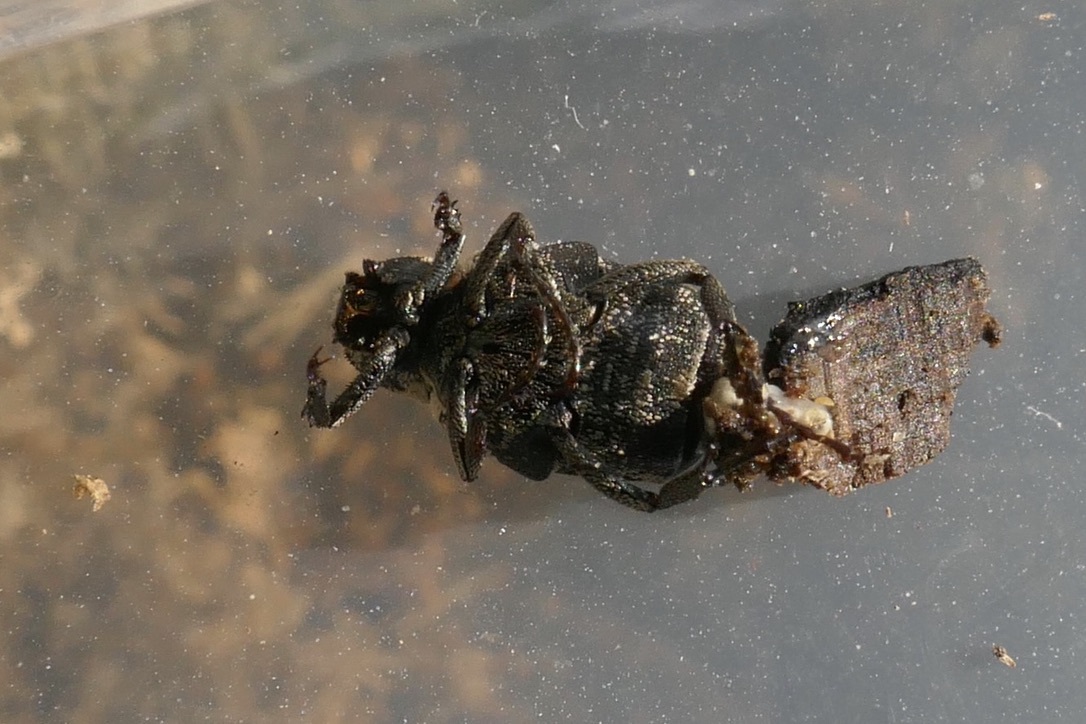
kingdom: Animalia
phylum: Arthropoda
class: Insecta
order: Coleoptera
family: Scarabaeidae
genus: Valgus
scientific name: Valgus hemipterus
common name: Bug flower chafer
